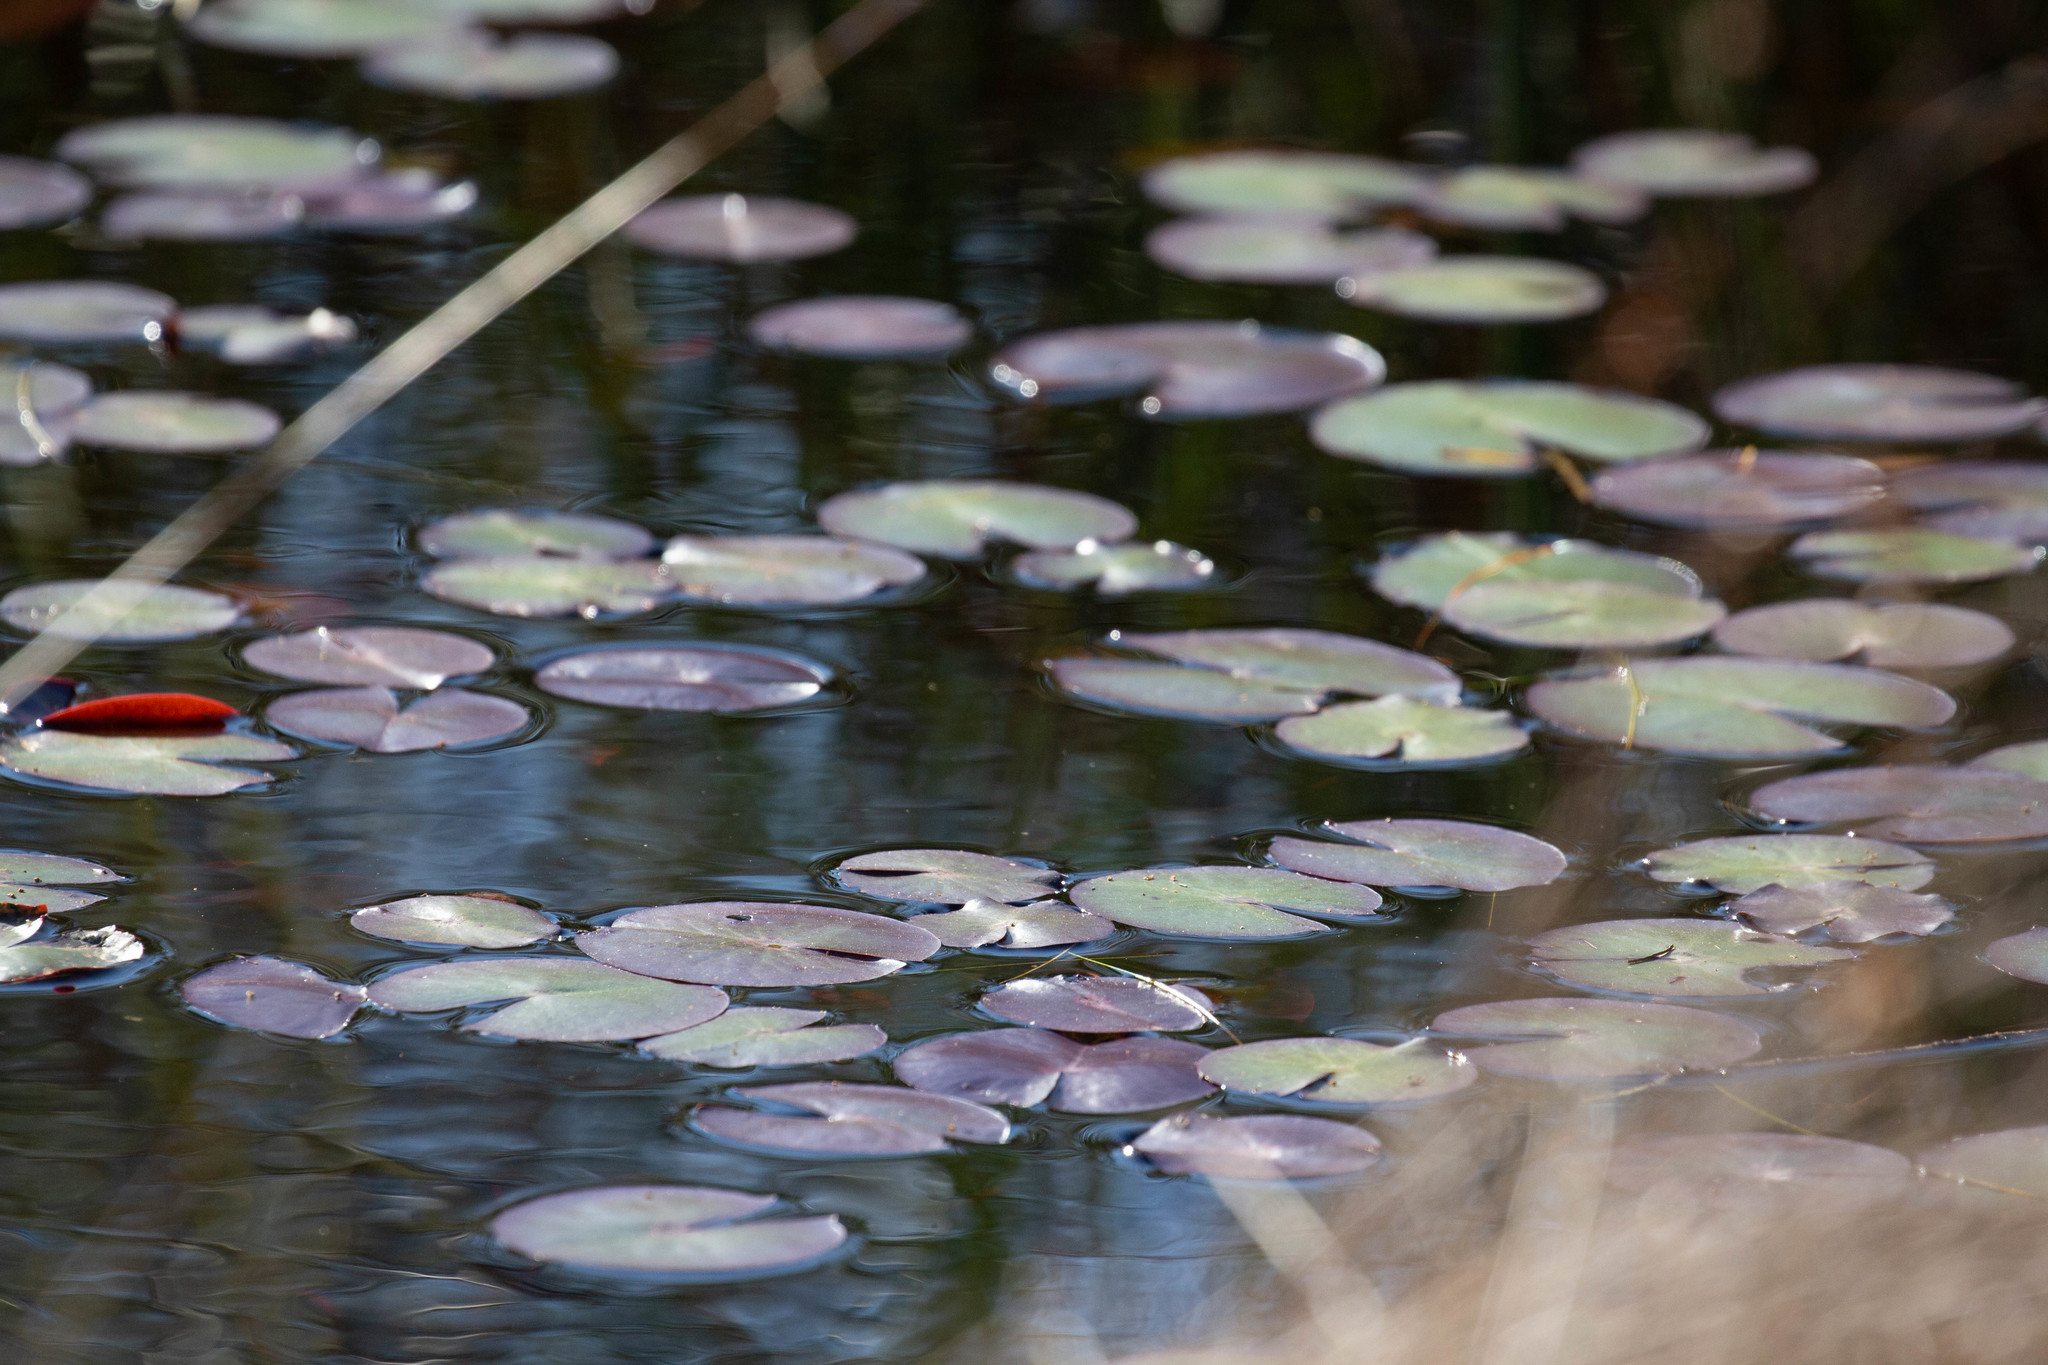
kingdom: Plantae
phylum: Tracheophyta
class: Magnoliopsida
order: Nymphaeales
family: Nymphaeaceae
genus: Nymphaea
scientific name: Nymphaea odorata
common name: Fragrant water-lily
